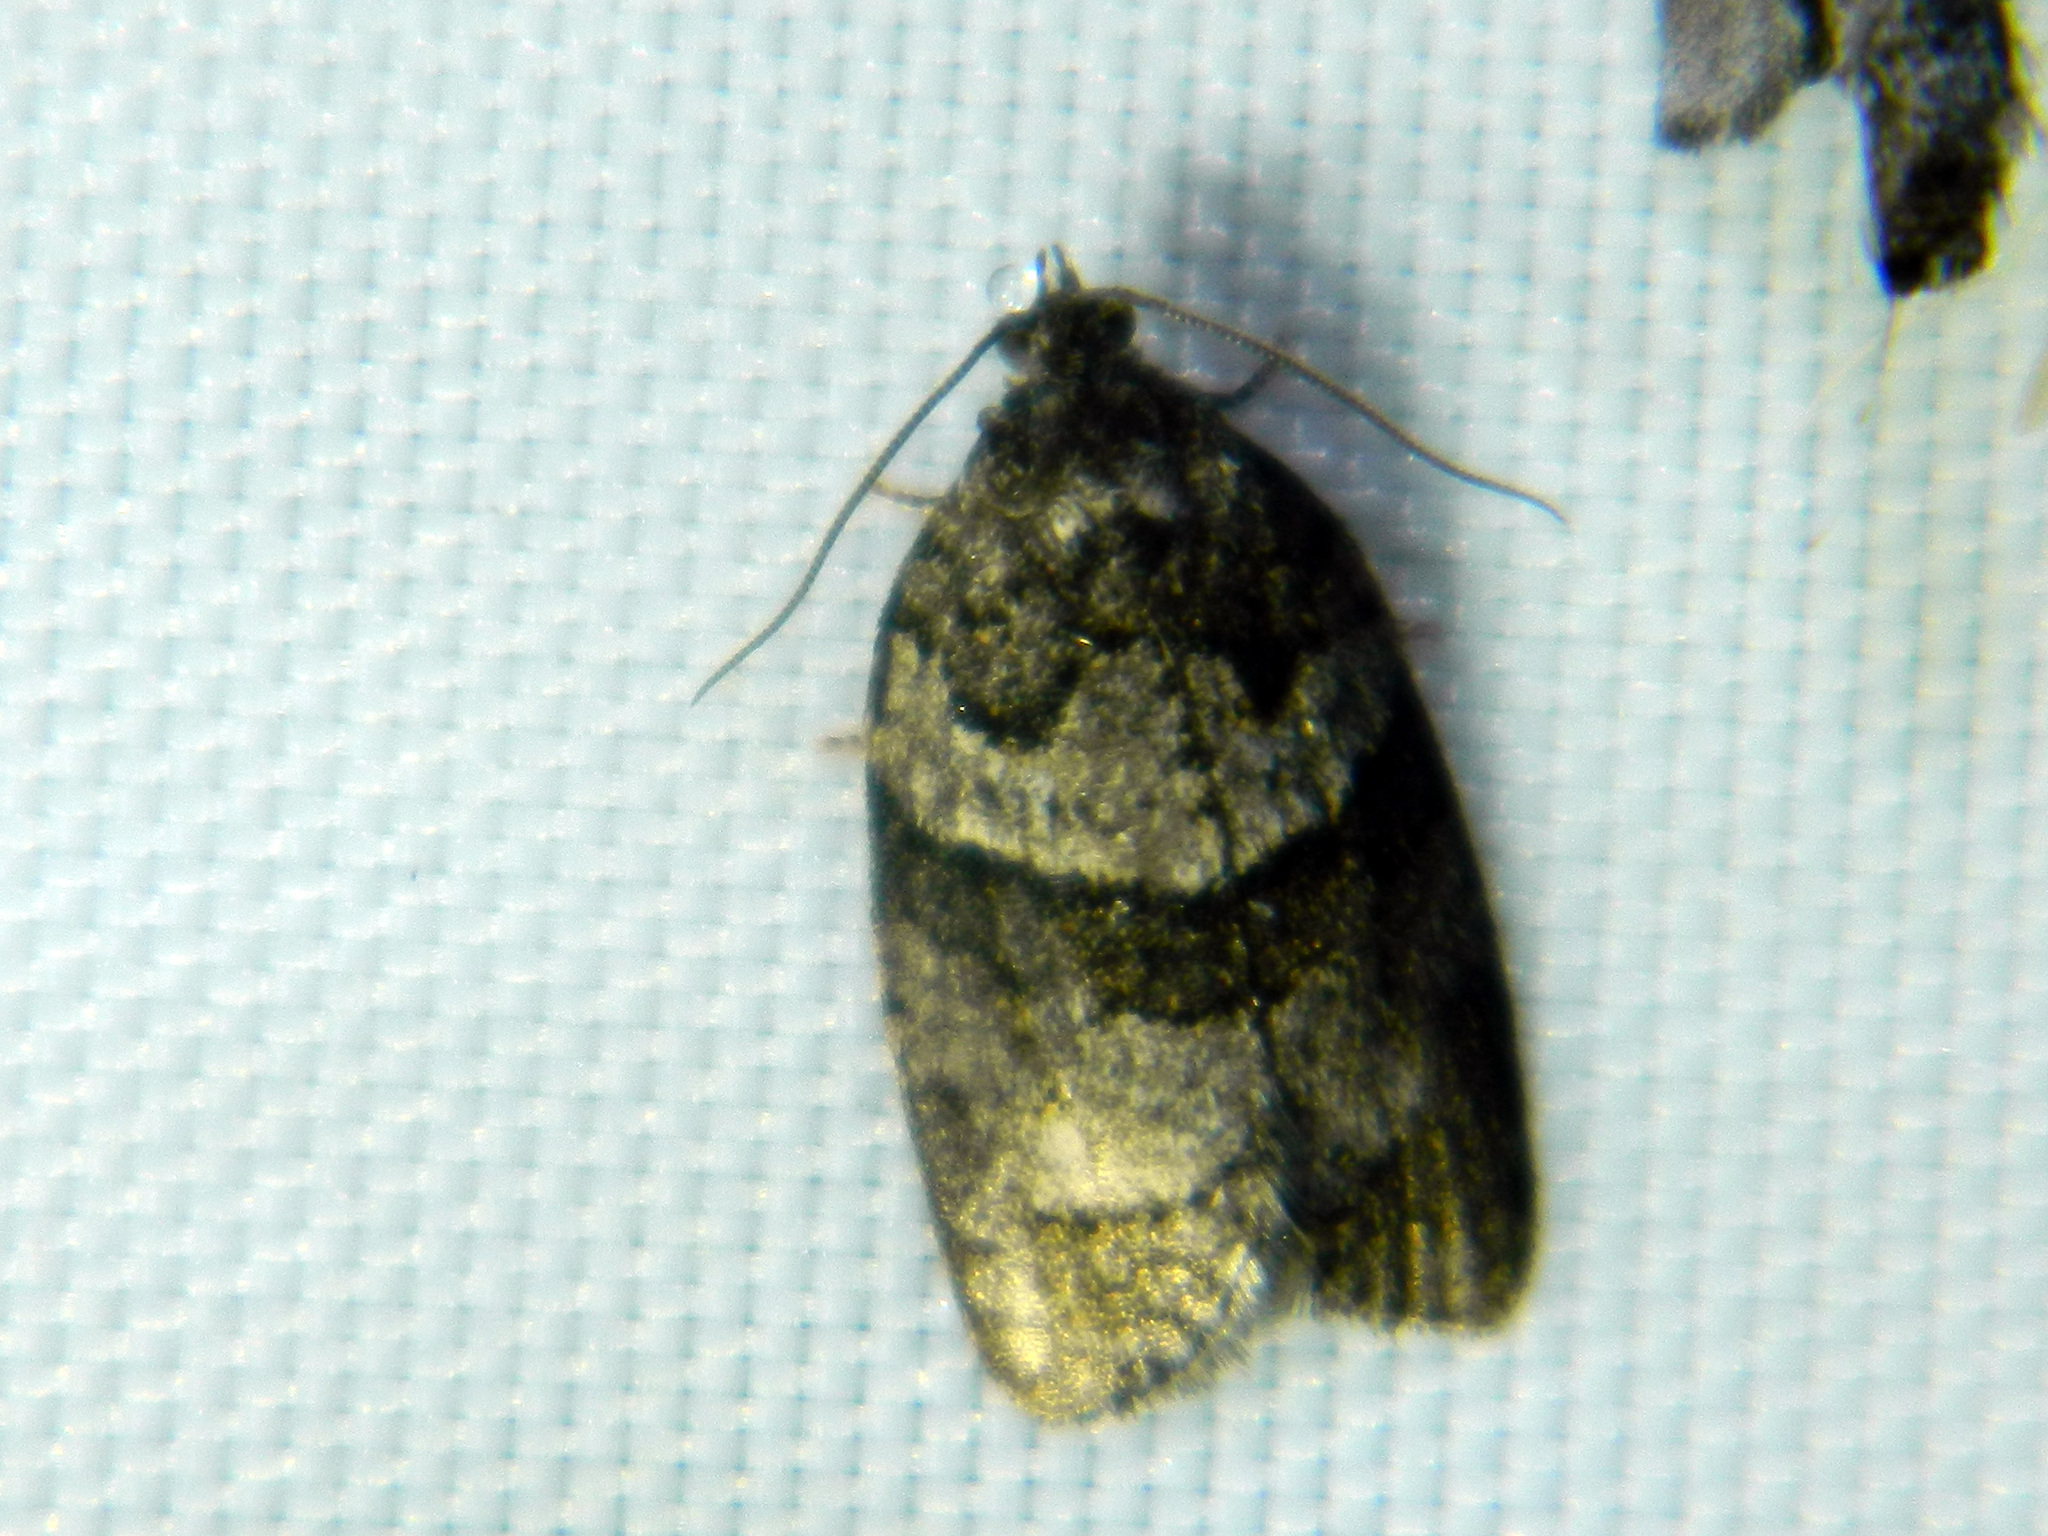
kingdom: Animalia
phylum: Arthropoda
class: Insecta
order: Lepidoptera
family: Tortricidae
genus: Syndemis
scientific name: Syndemis afflictana
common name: Gray leafroller moth
